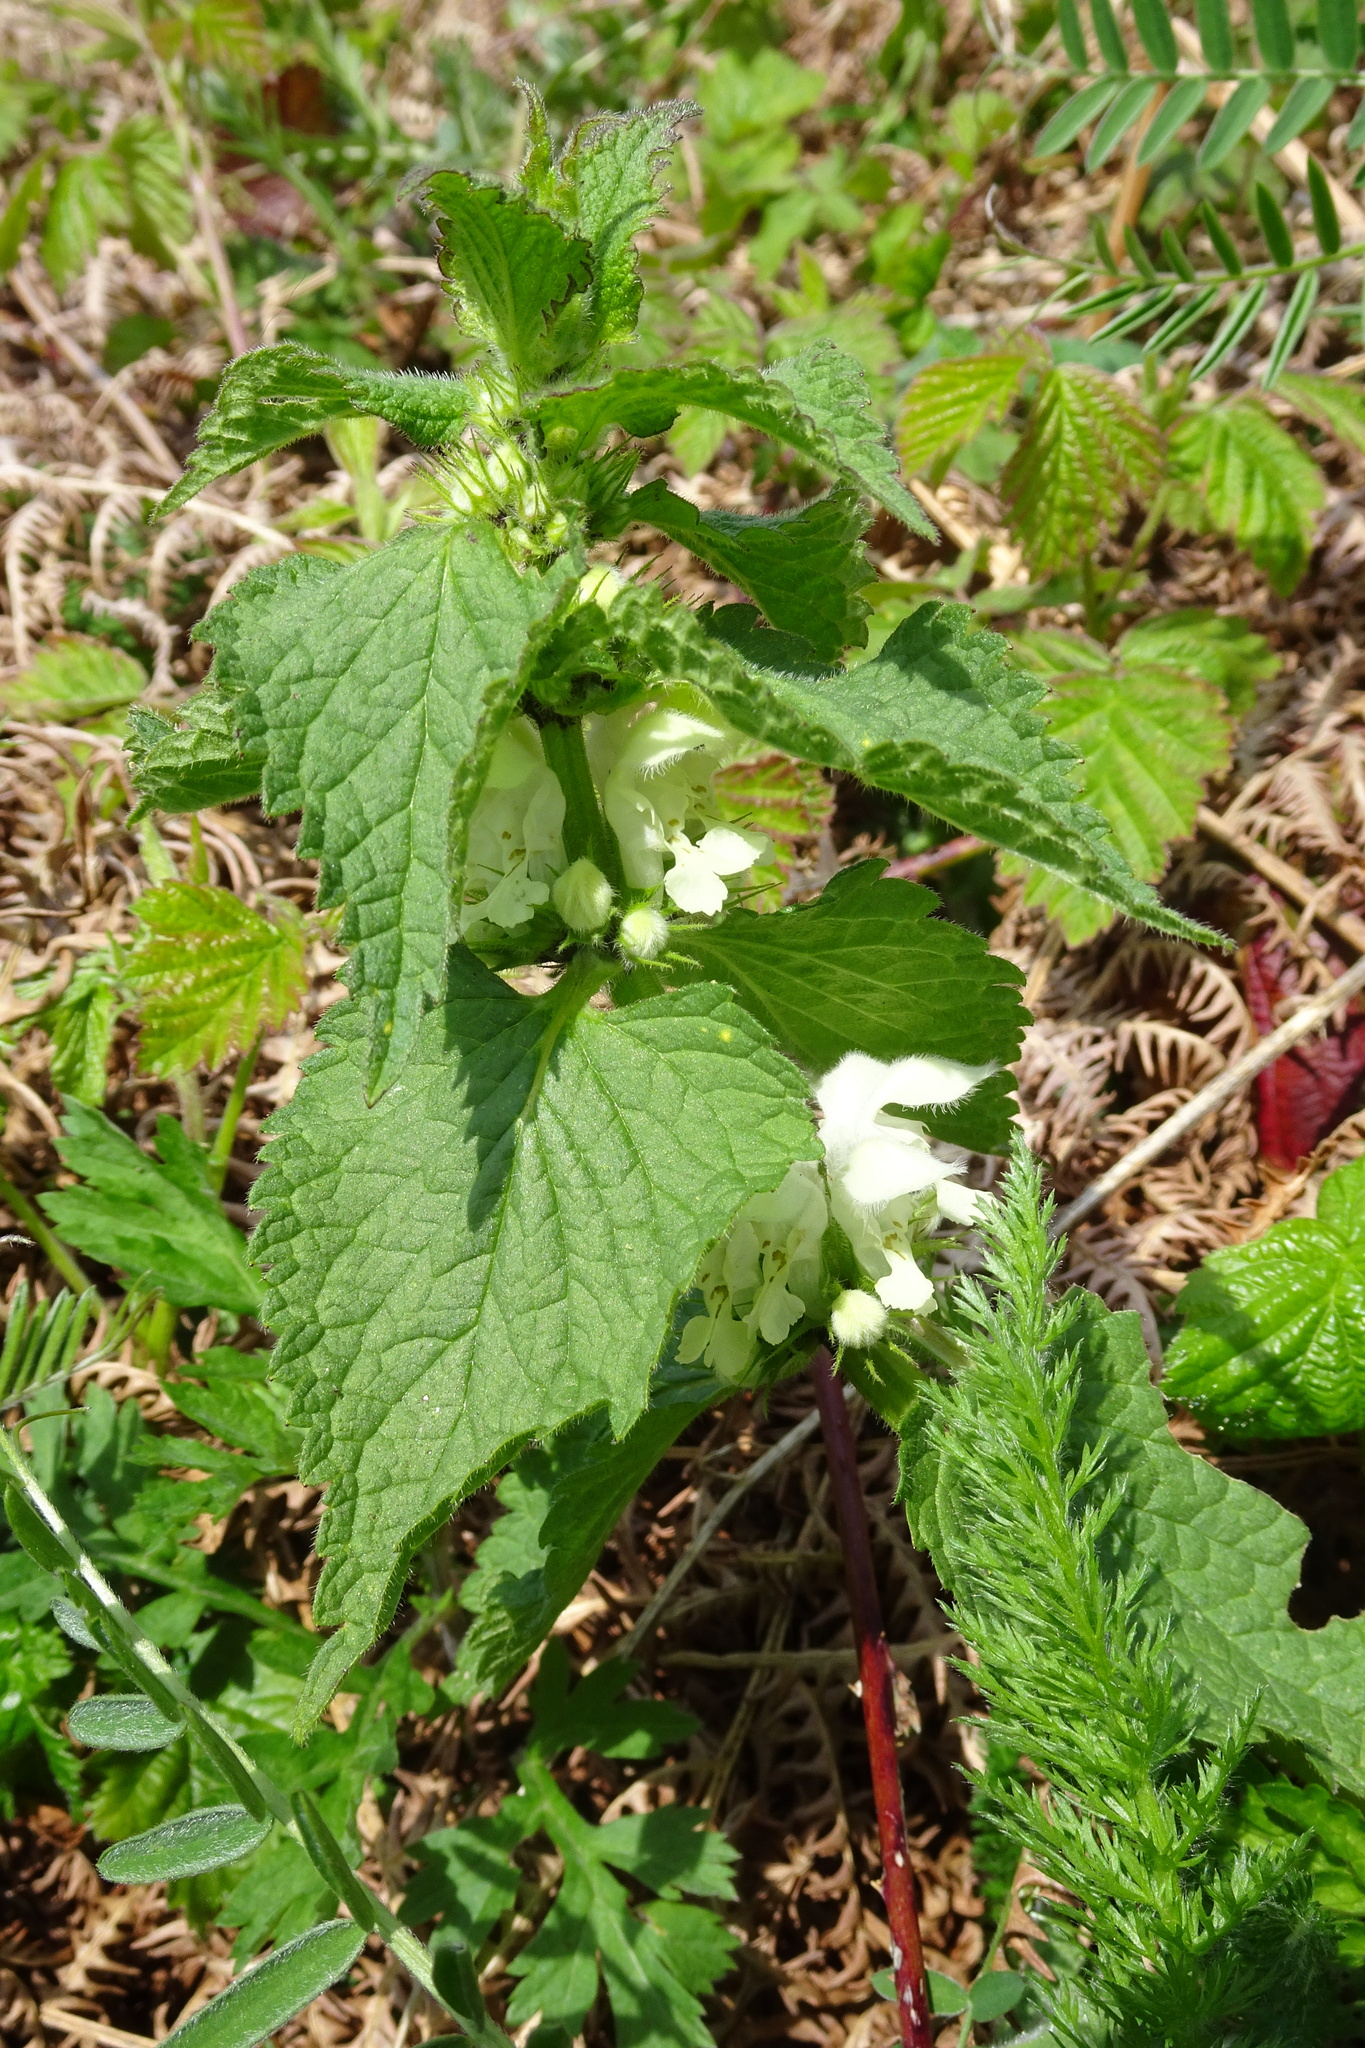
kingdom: Plantae
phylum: Tracheophyta
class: Magnoliopsida
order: Lamiales
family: Lamiaceae
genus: Lamium
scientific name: Lamium album
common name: White dead-nettle
